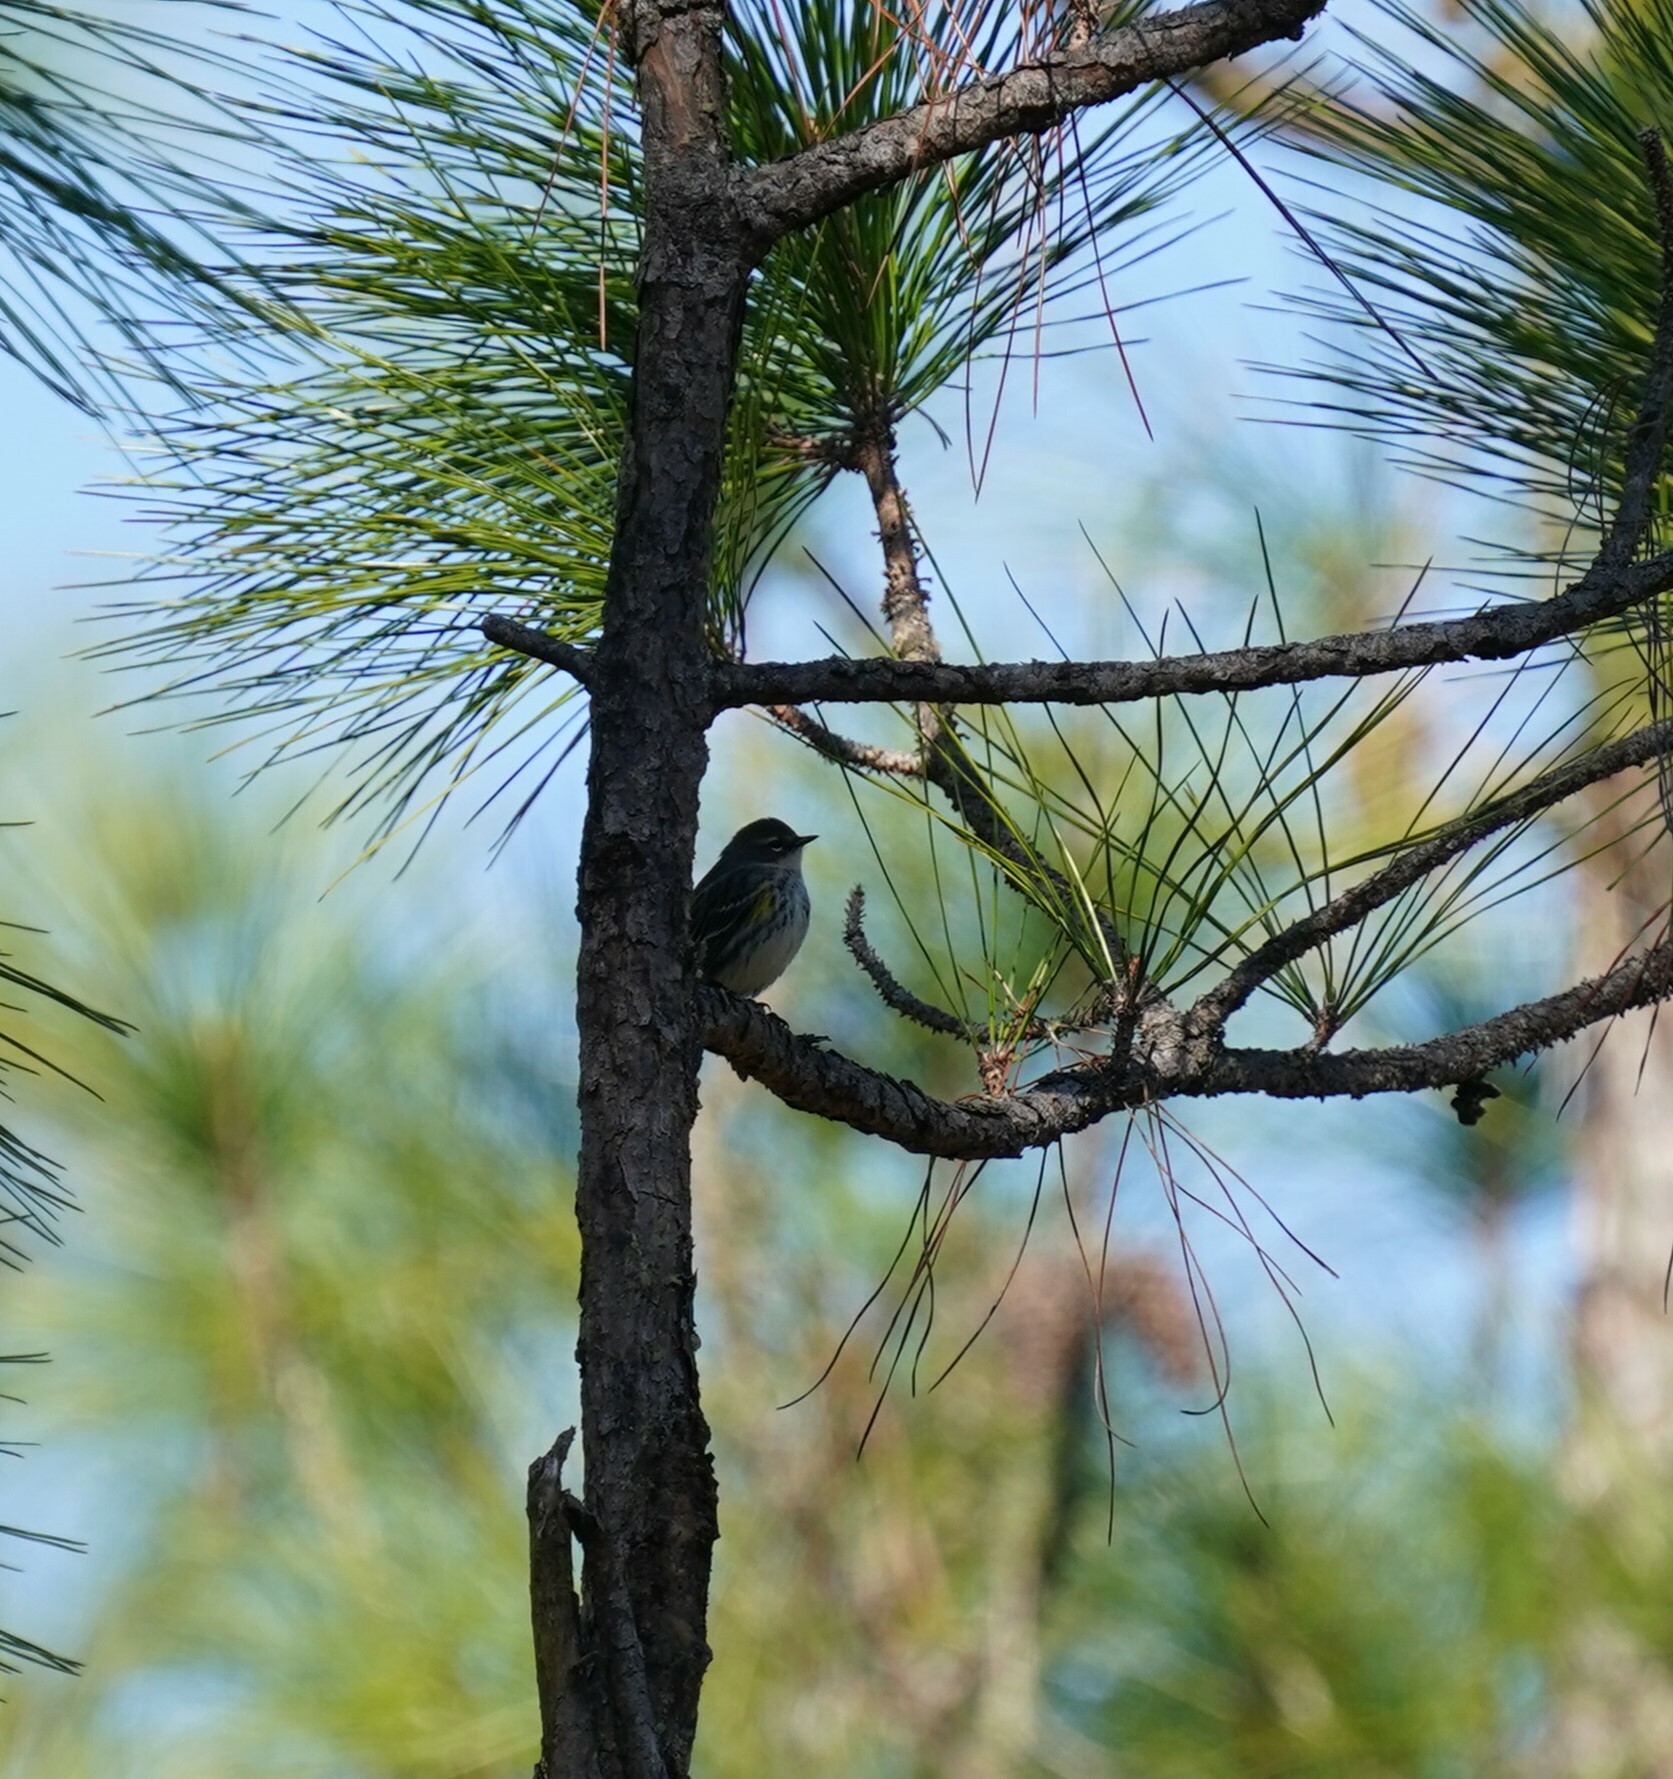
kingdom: Animalia
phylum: Chordata
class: Aves
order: Passeriformes
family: Parulidae
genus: Setophaga
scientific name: Setophaga coronata
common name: Myrtle warbler
